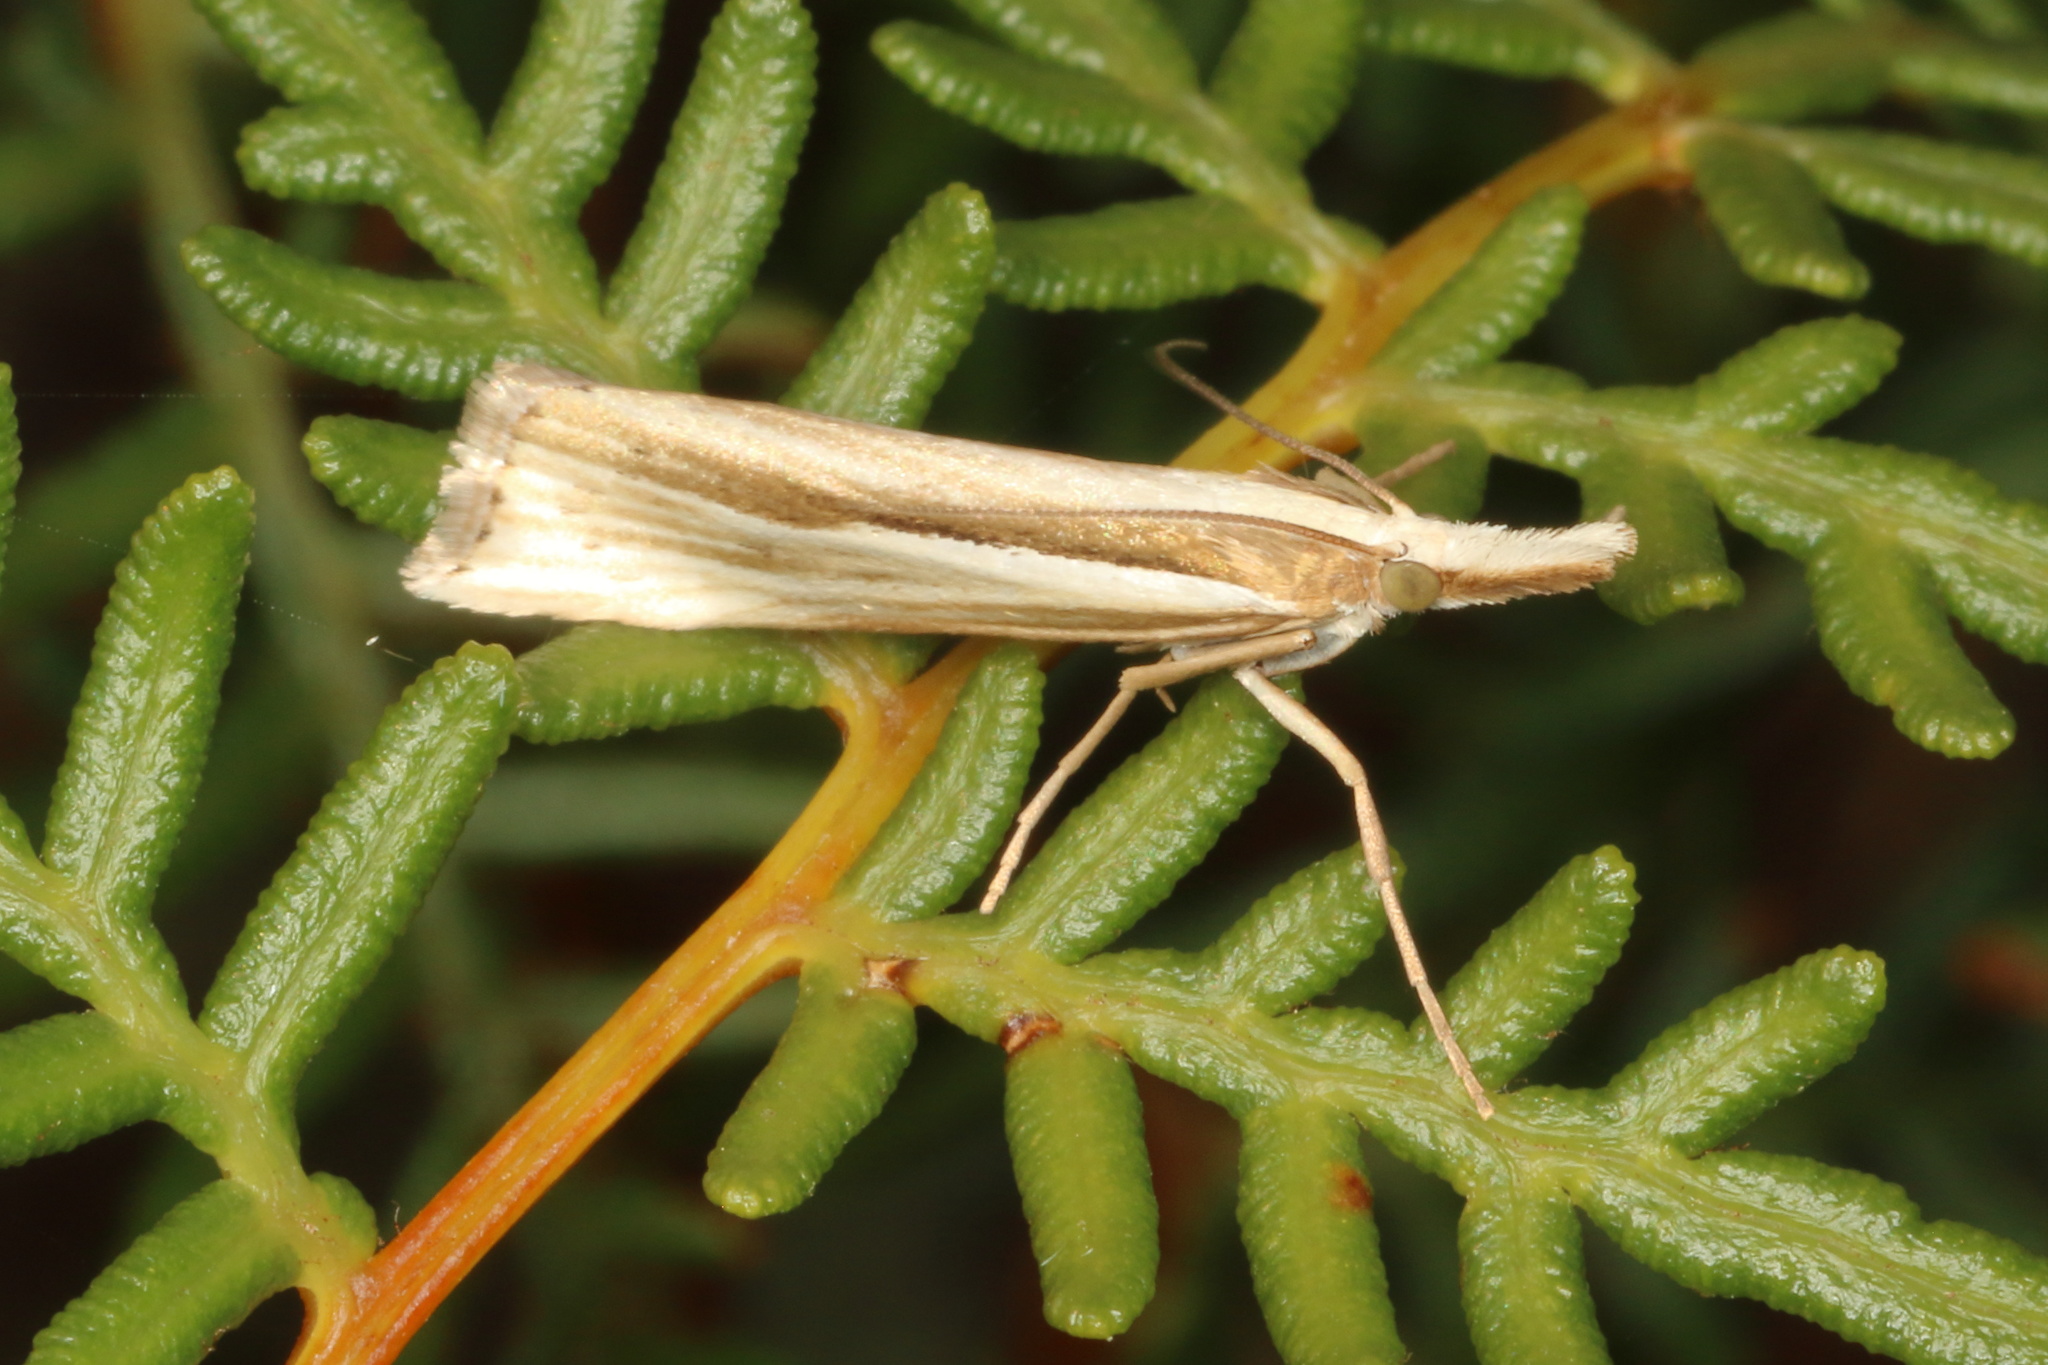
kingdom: Animalia
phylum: Arthropoda
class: Insecta
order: Lepidoptera
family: Crambidae
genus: Orocrambus
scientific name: Orocrambus ramosellus
